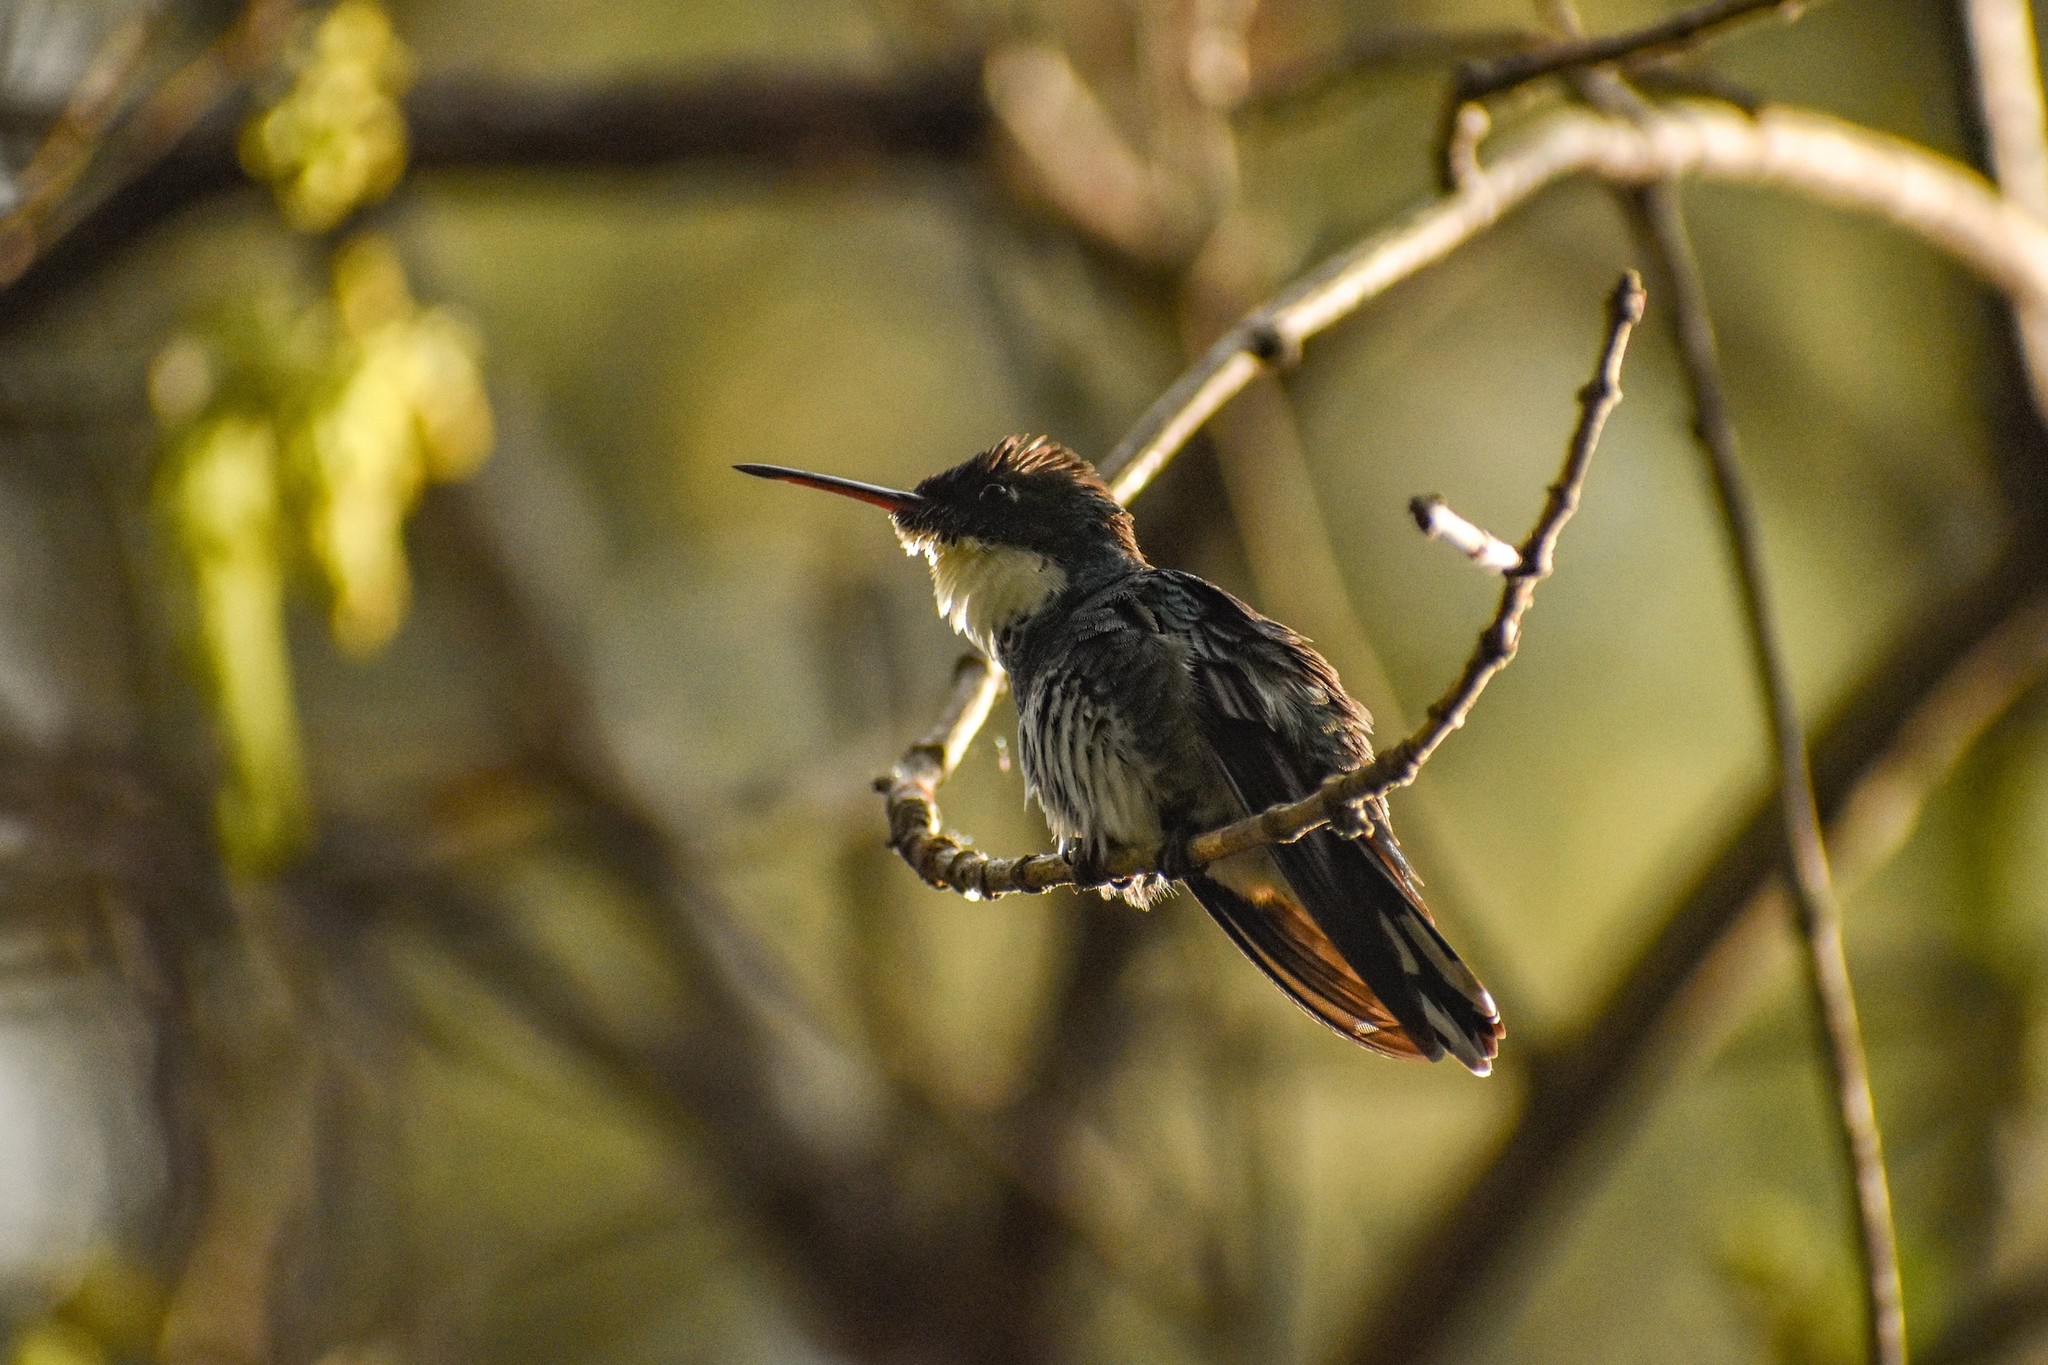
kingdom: Animalia
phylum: Chordata
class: Aves
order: Apodiformes
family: Trochilidae
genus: Leucochloris
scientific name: Leucochloris albicollis
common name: White-throated hummingbird
